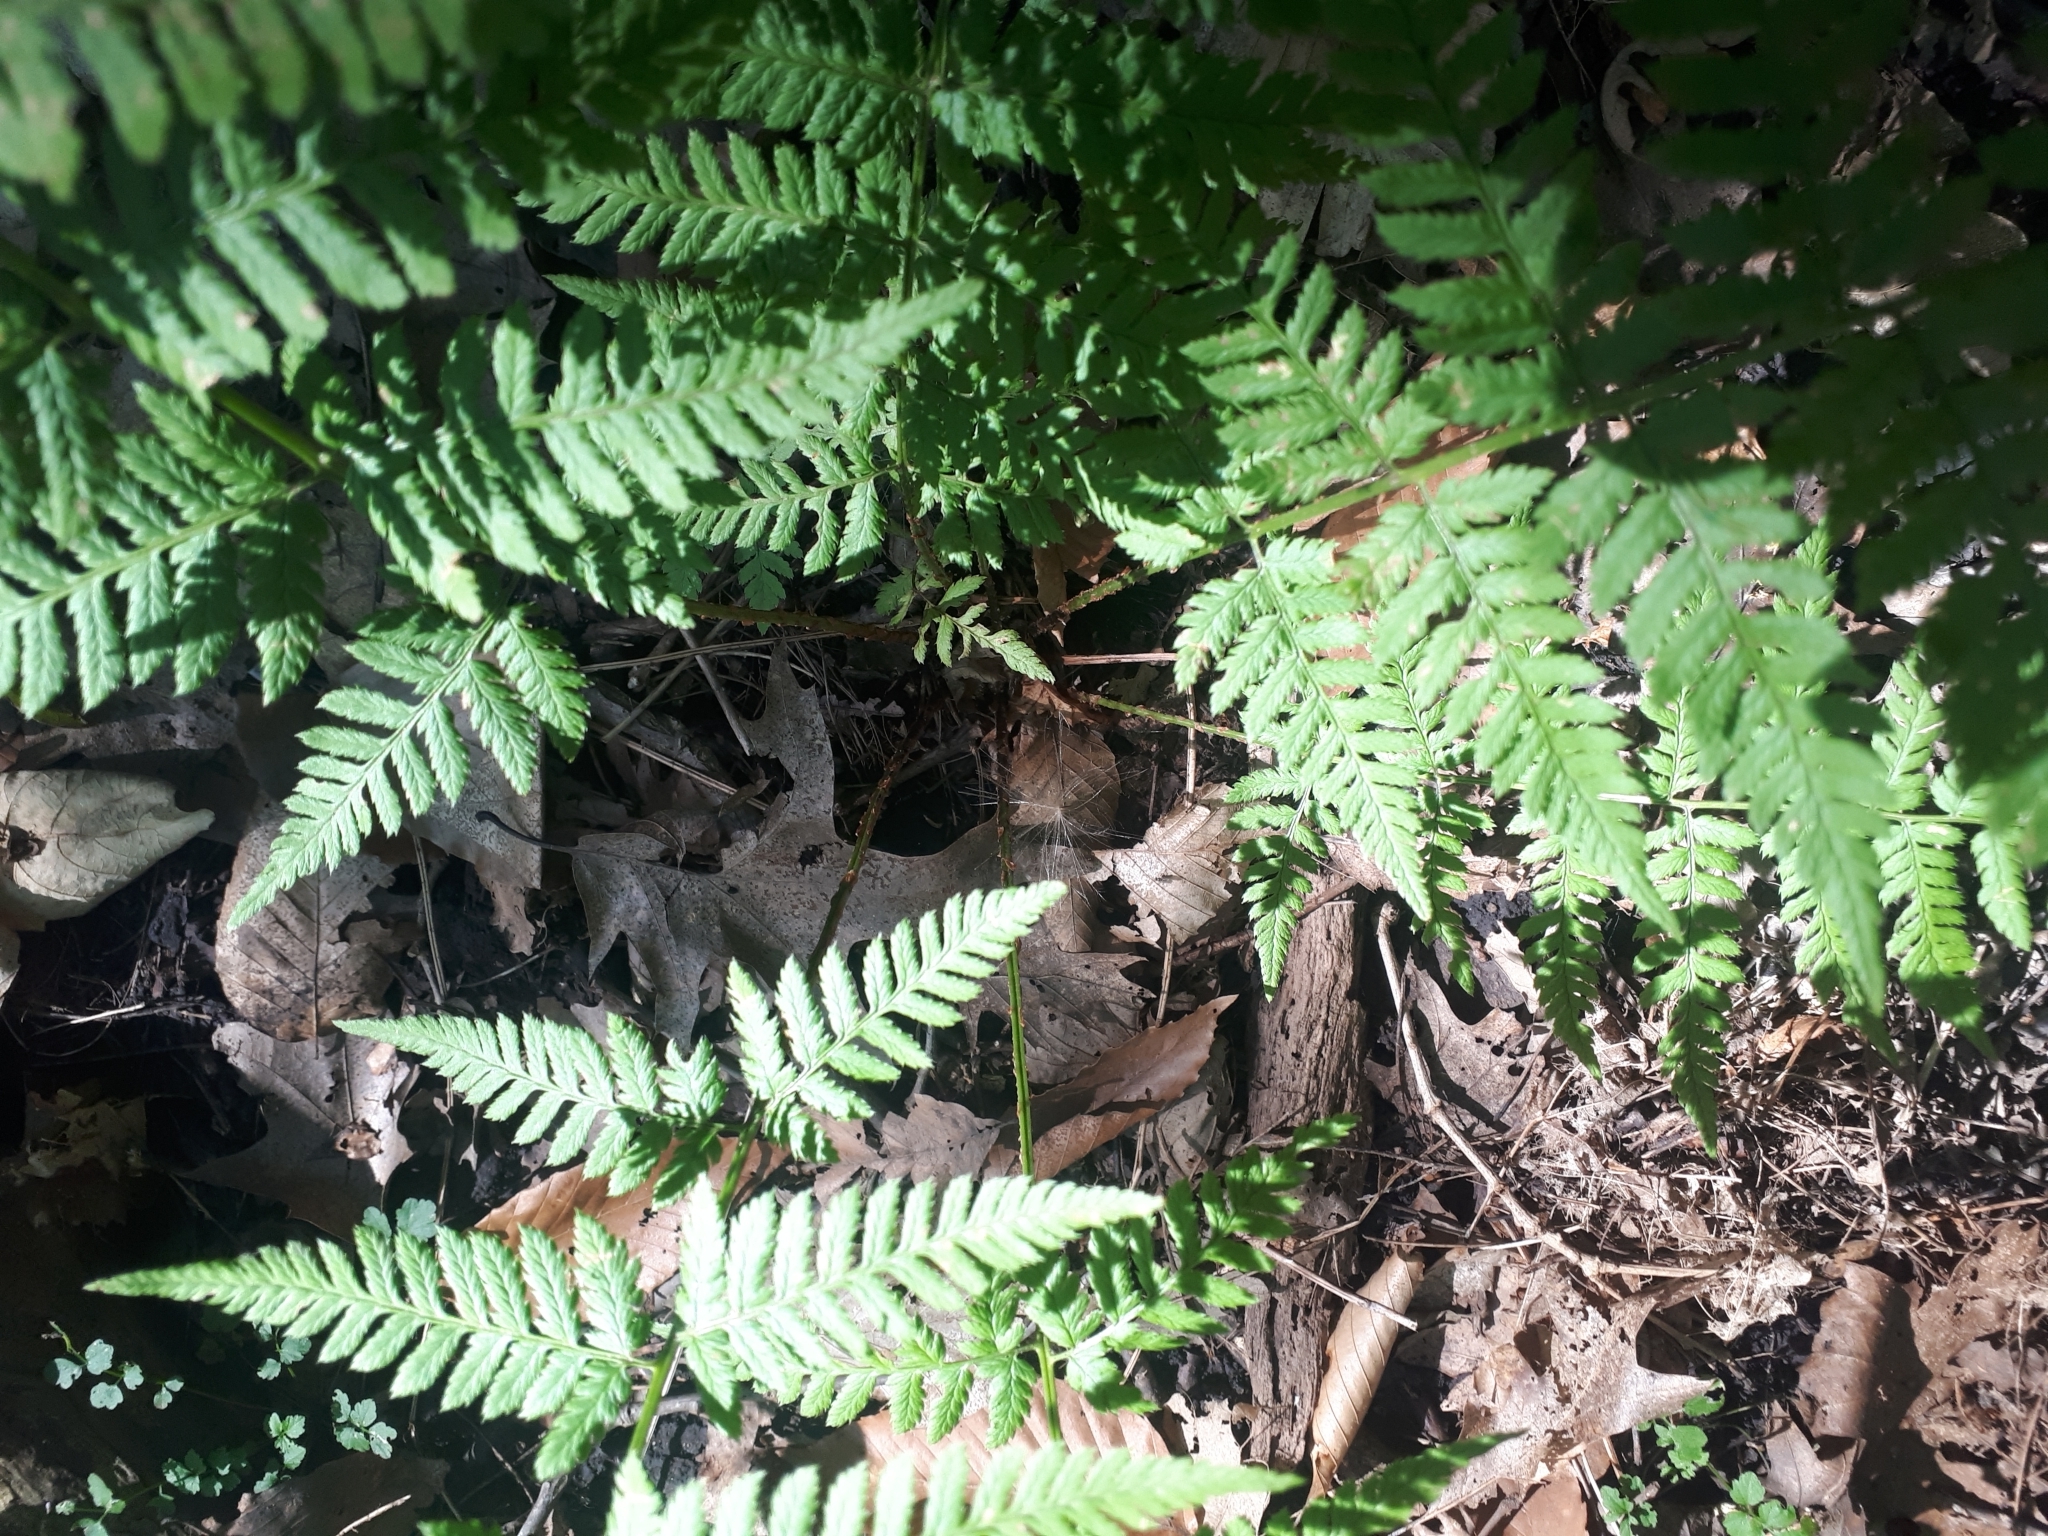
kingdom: Plantae
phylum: Tracheophyta
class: Polypodiopsida
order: Polypodiales
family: Dryopteridaceae
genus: Dryopteris
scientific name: Dryopteris carthusiana
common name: Narrow buckler-fern
